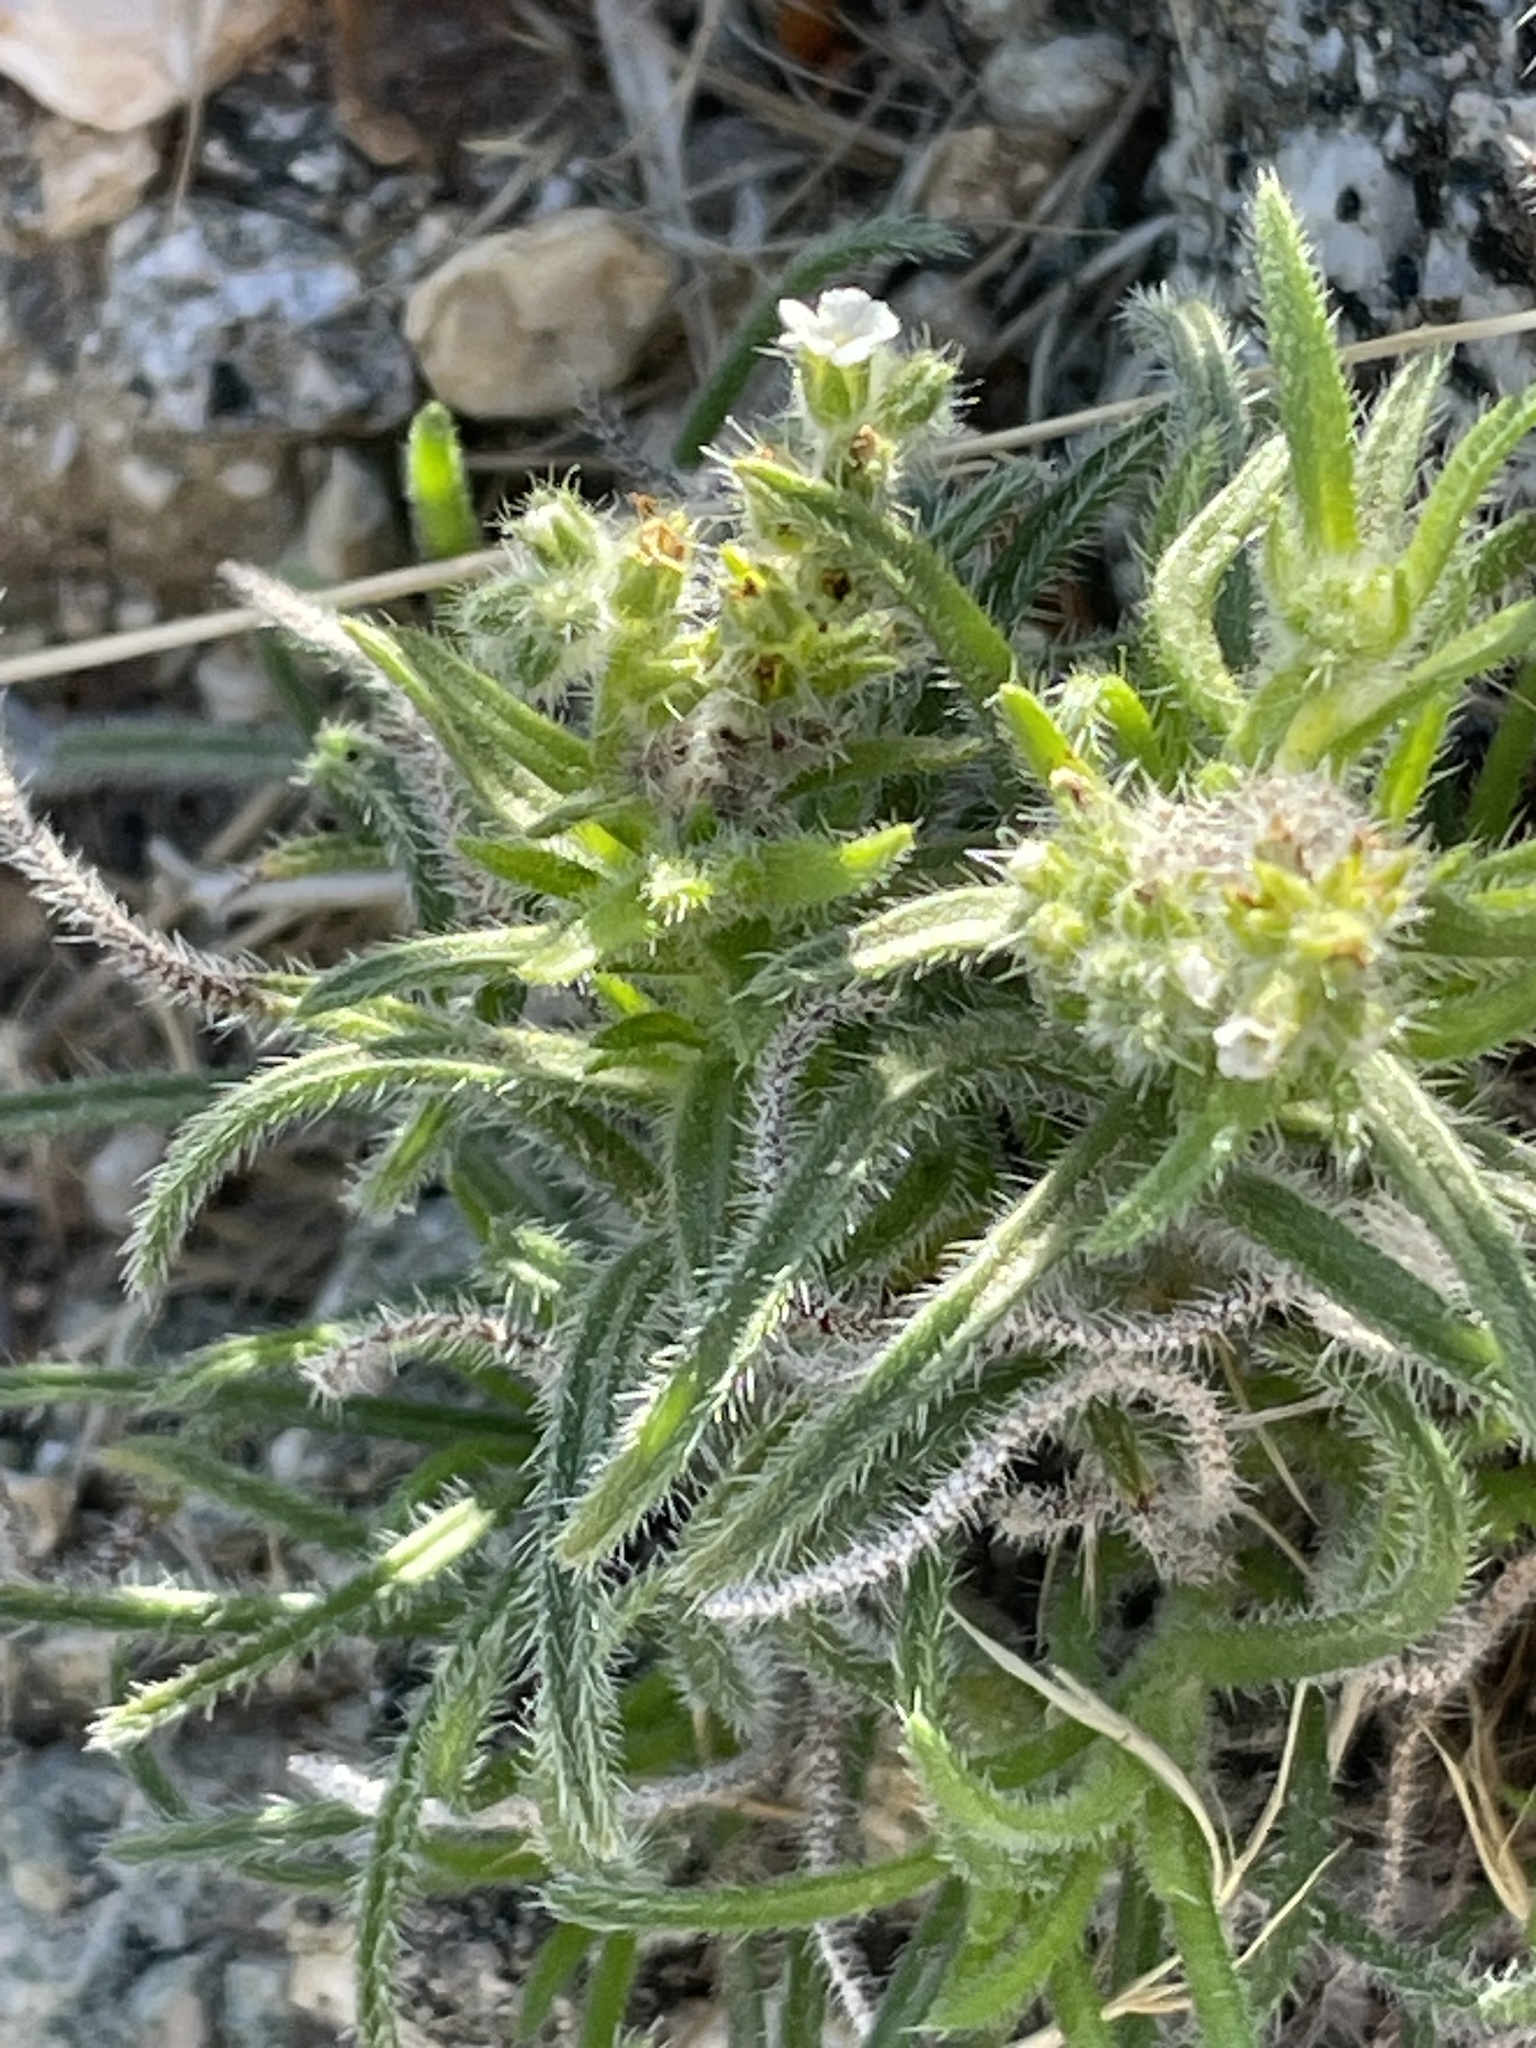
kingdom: Plantae
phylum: Tracheophyta
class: Magnoliopsida
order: Boraginales
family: Boraginaceae
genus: Johnstonella
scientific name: Johnstonella angustifolia
